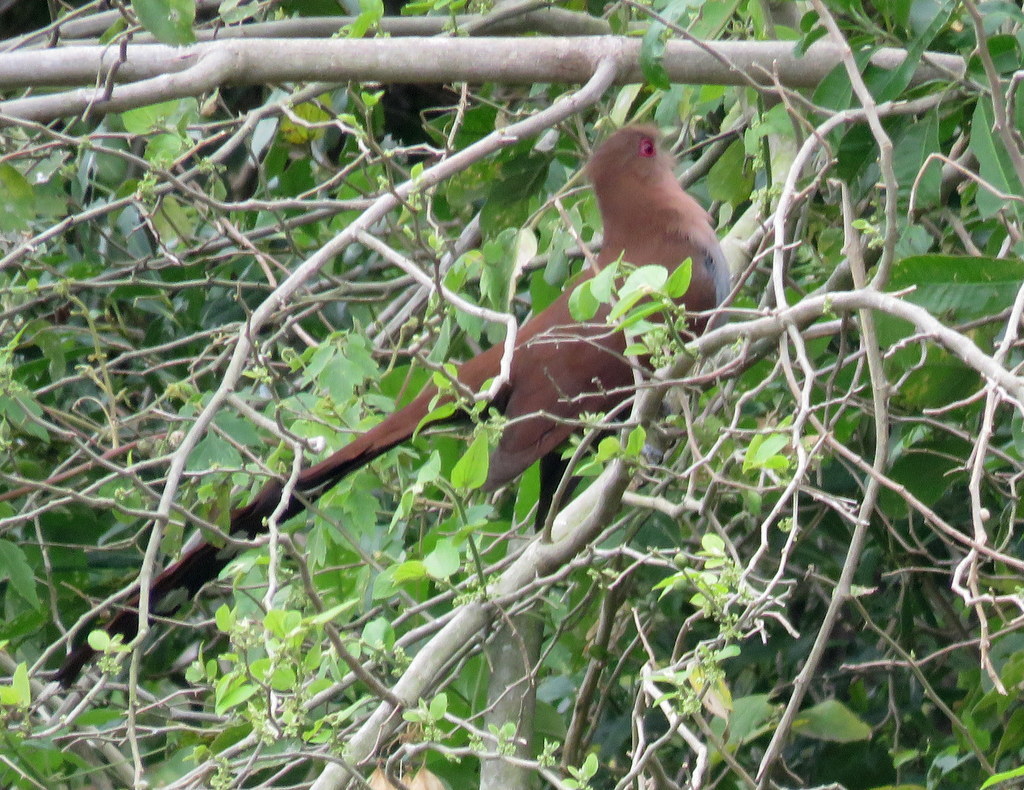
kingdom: Animalia
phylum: Chordata
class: Aves
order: Cuculiformes
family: Cuculidae
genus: Piaya
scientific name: Piaya cayana
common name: Squirrel cuckoo
